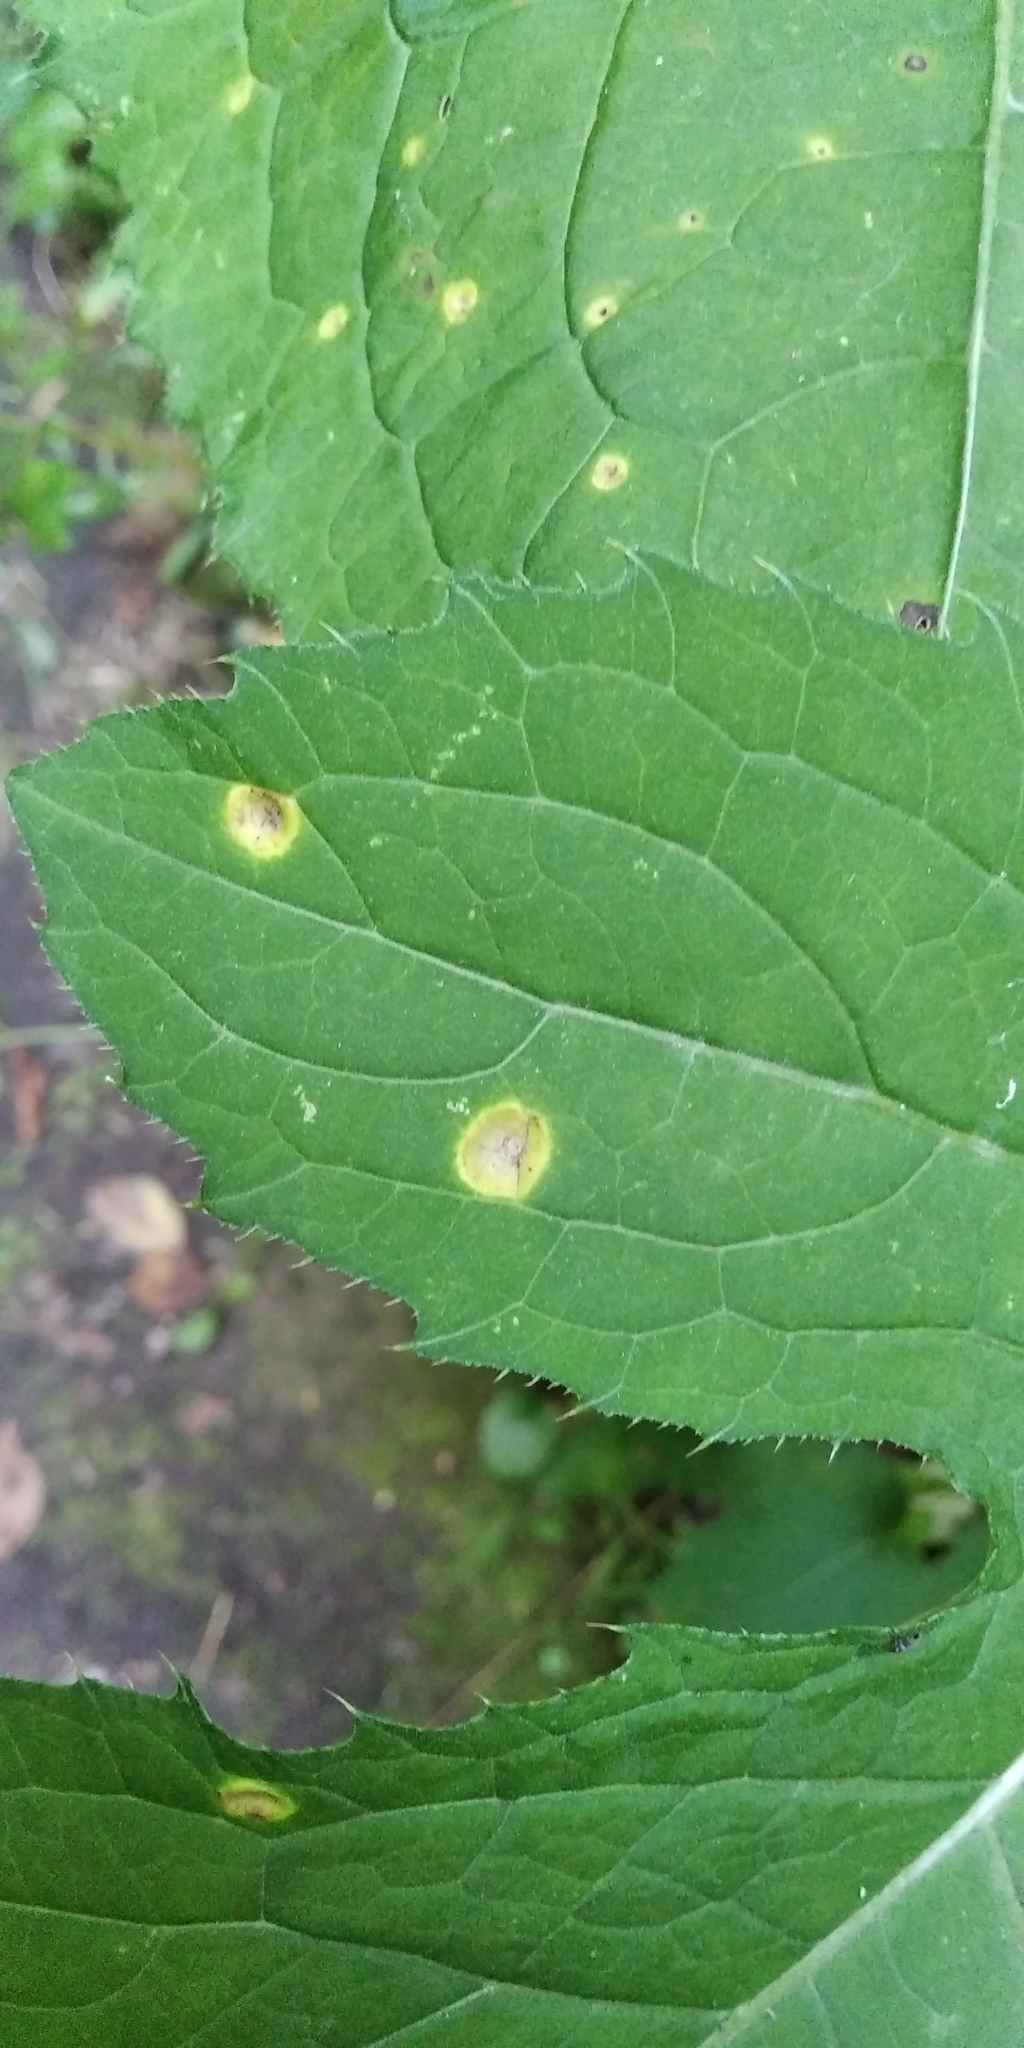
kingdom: Fungi
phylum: Basidiomycota
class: Pucciniomycetes
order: Pucciniales
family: Pucciniaceae
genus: Puccinia
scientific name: Puccinia cnici-oleracei
